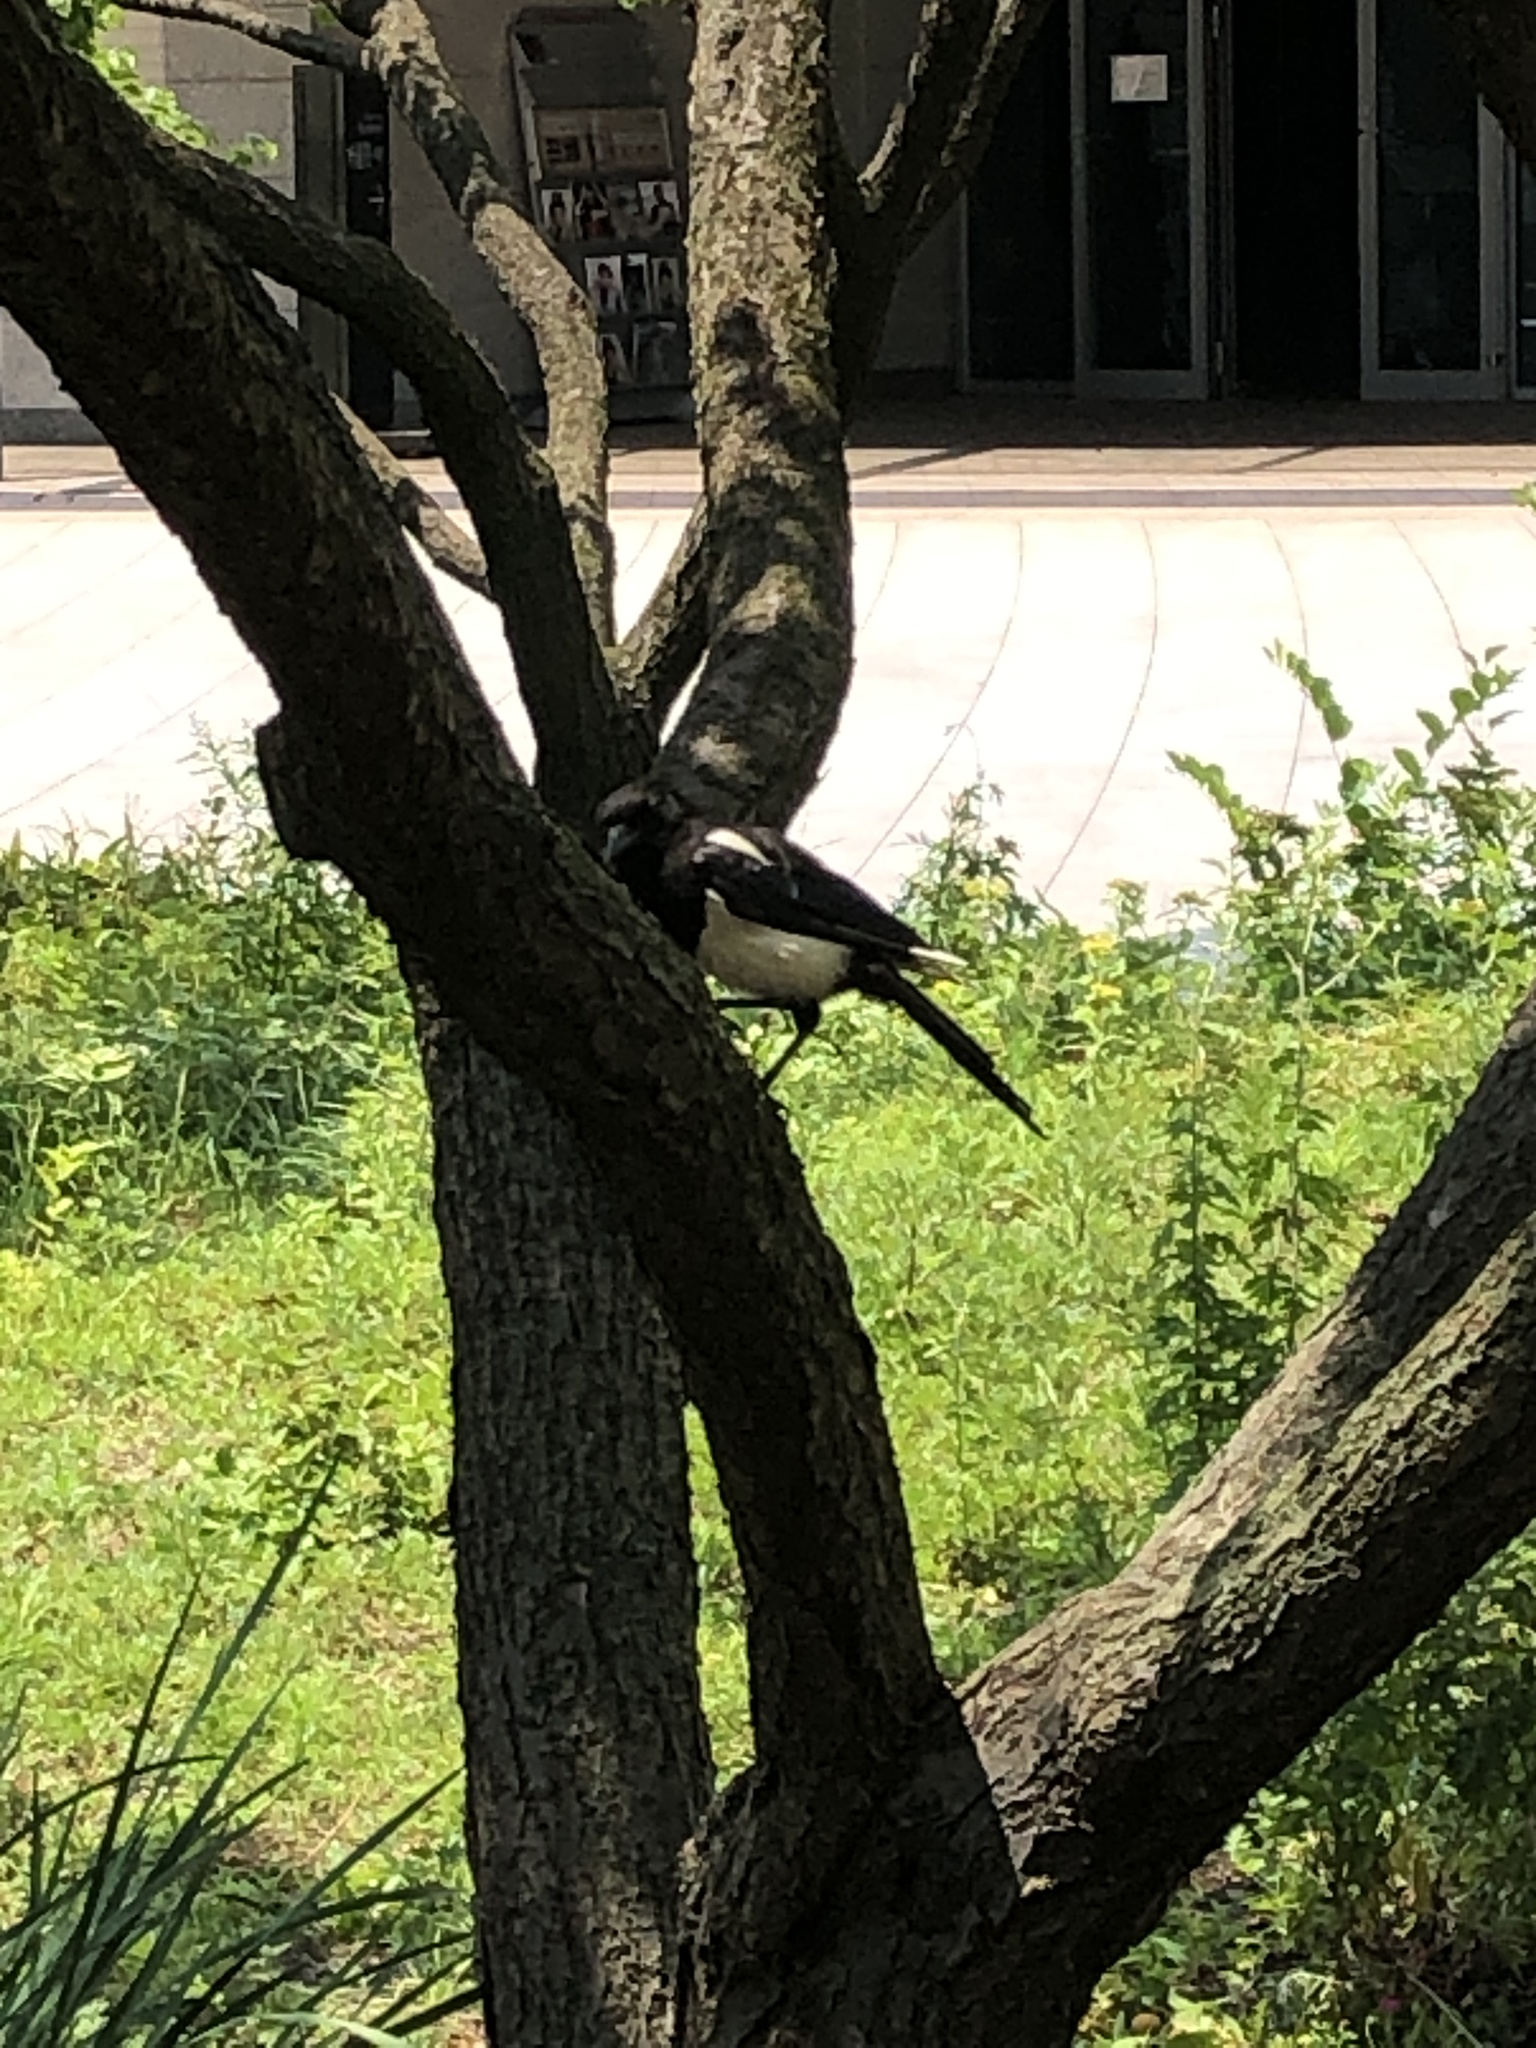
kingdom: Animalia
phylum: Chordata
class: Aves
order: Passeriformes
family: Corvidae
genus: Pica
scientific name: Pica serica
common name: Oriental magpie
